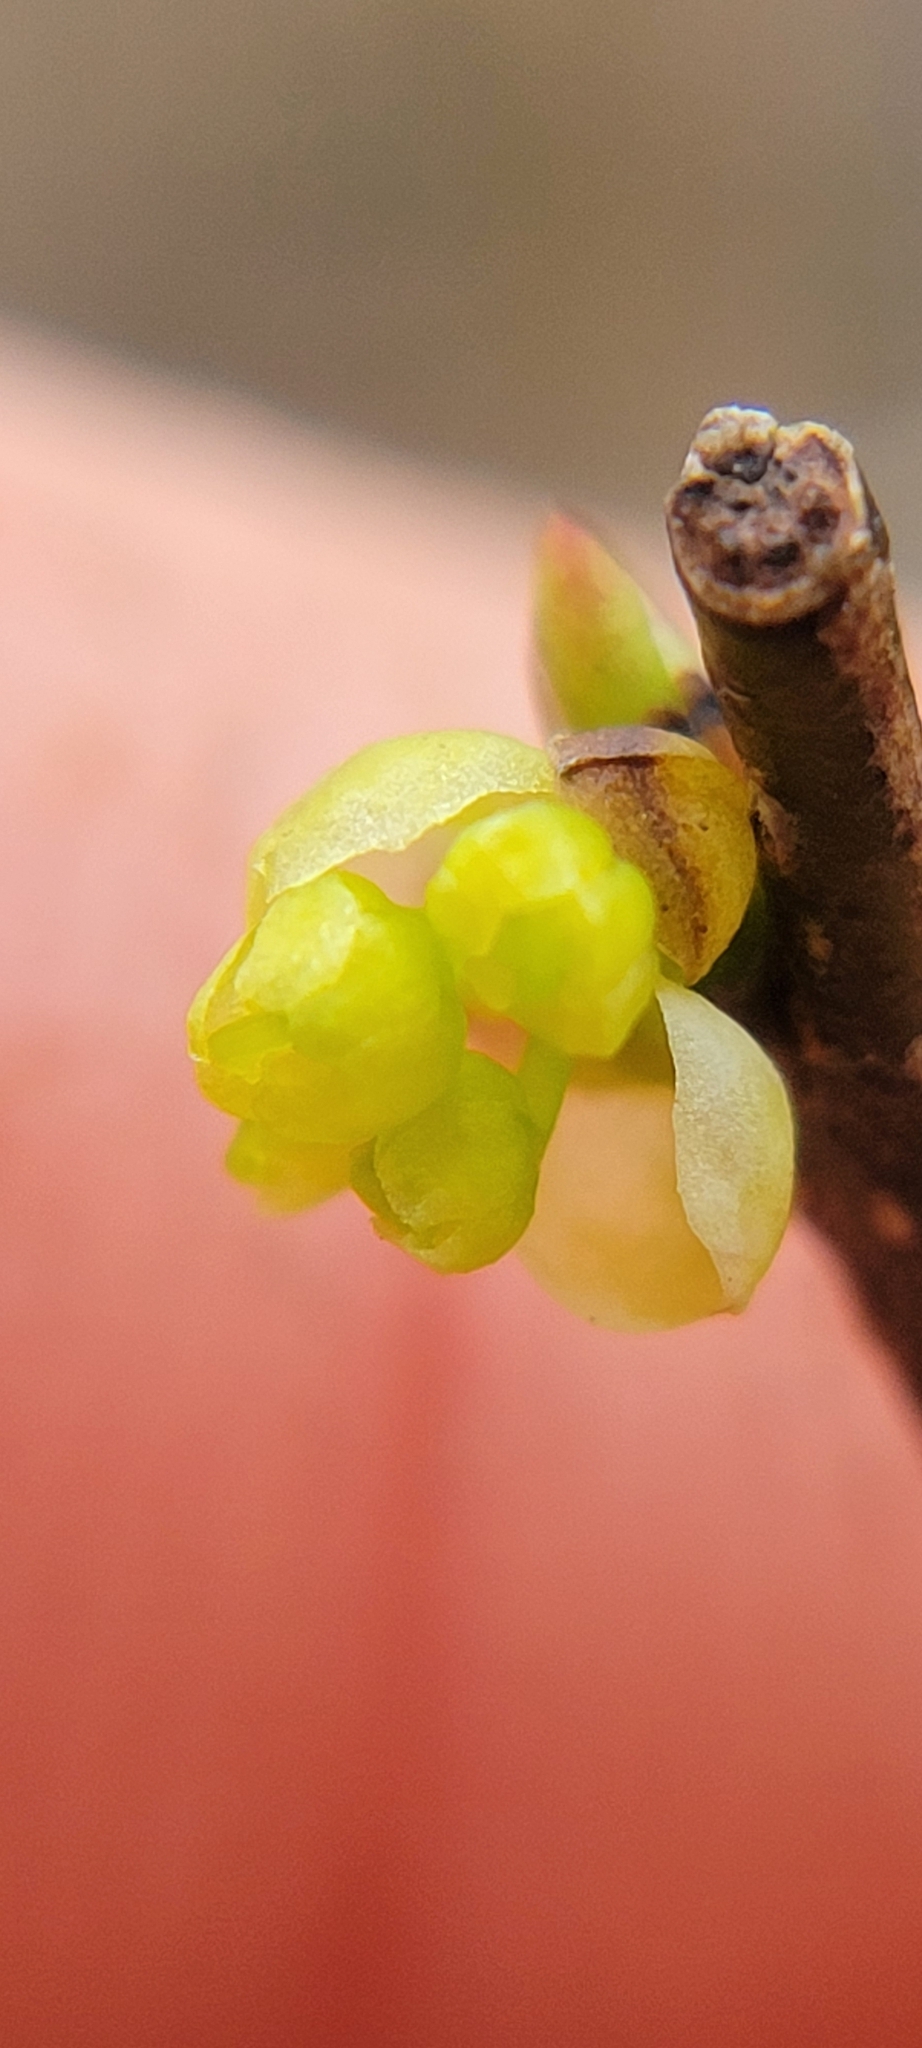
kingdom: Plantae
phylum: Tracheophyta
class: Magnoliopsida
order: Laurales
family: Lauraceae
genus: Lindera
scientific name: Lindera benzoin
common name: Spicebush
